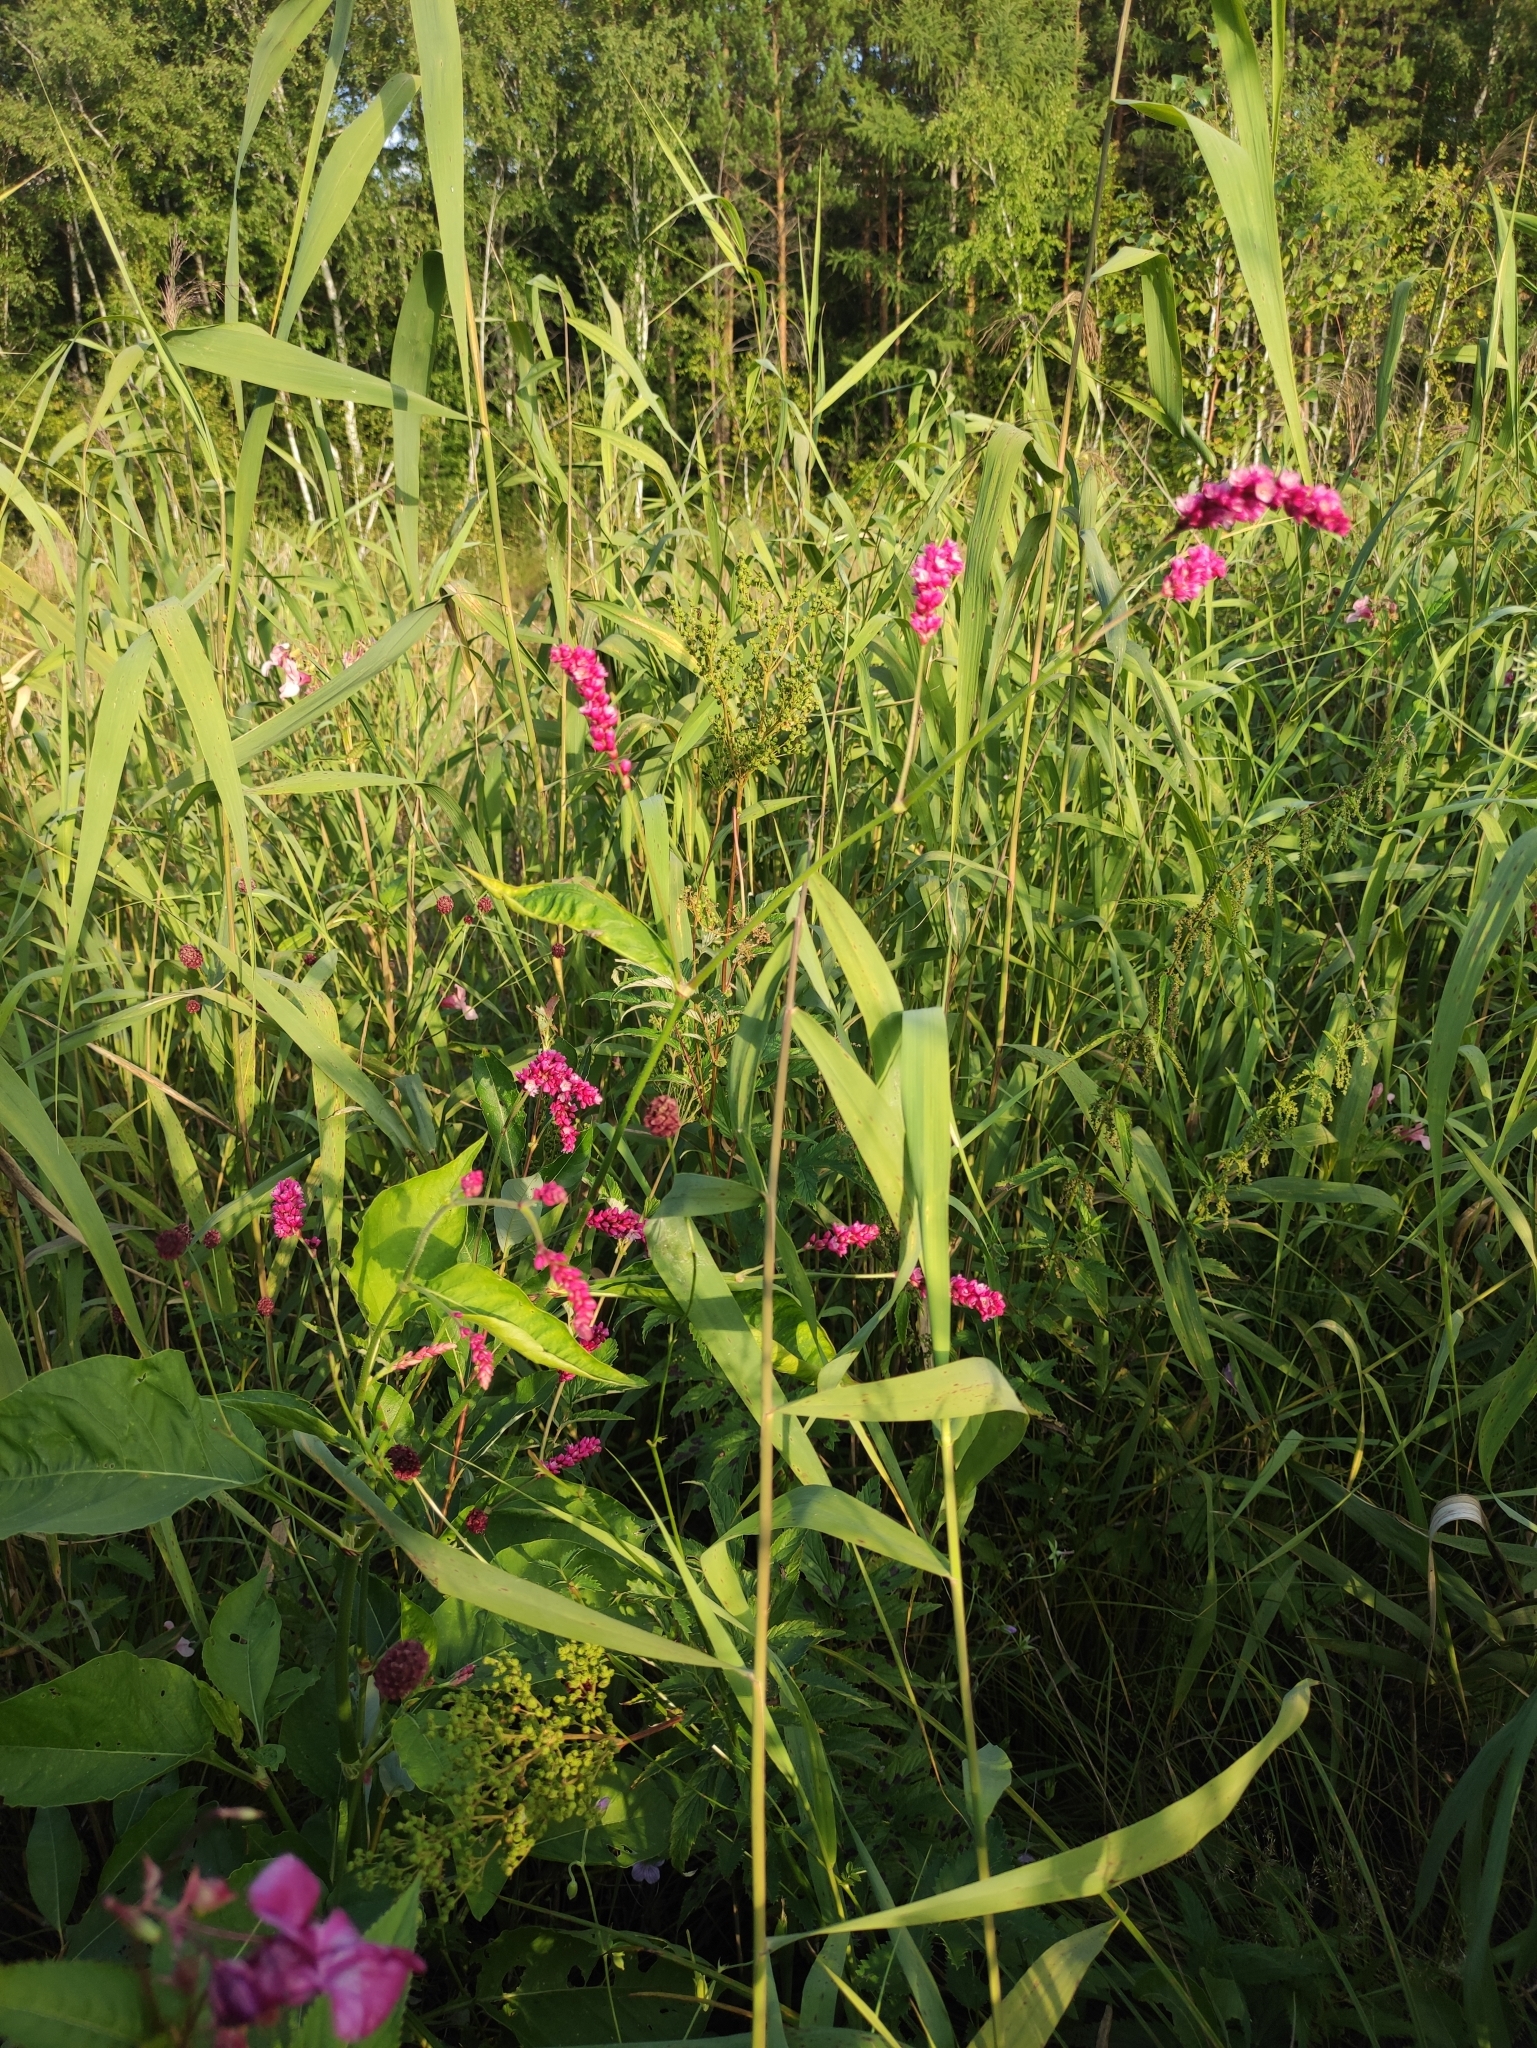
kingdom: Plantae
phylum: Tracheophyta
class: Magnoliopsida
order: Caryophyllales
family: Polygonaceae
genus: Persicaria
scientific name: Persicaria orientalis
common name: Kiss-me-over-the-garden-gate
